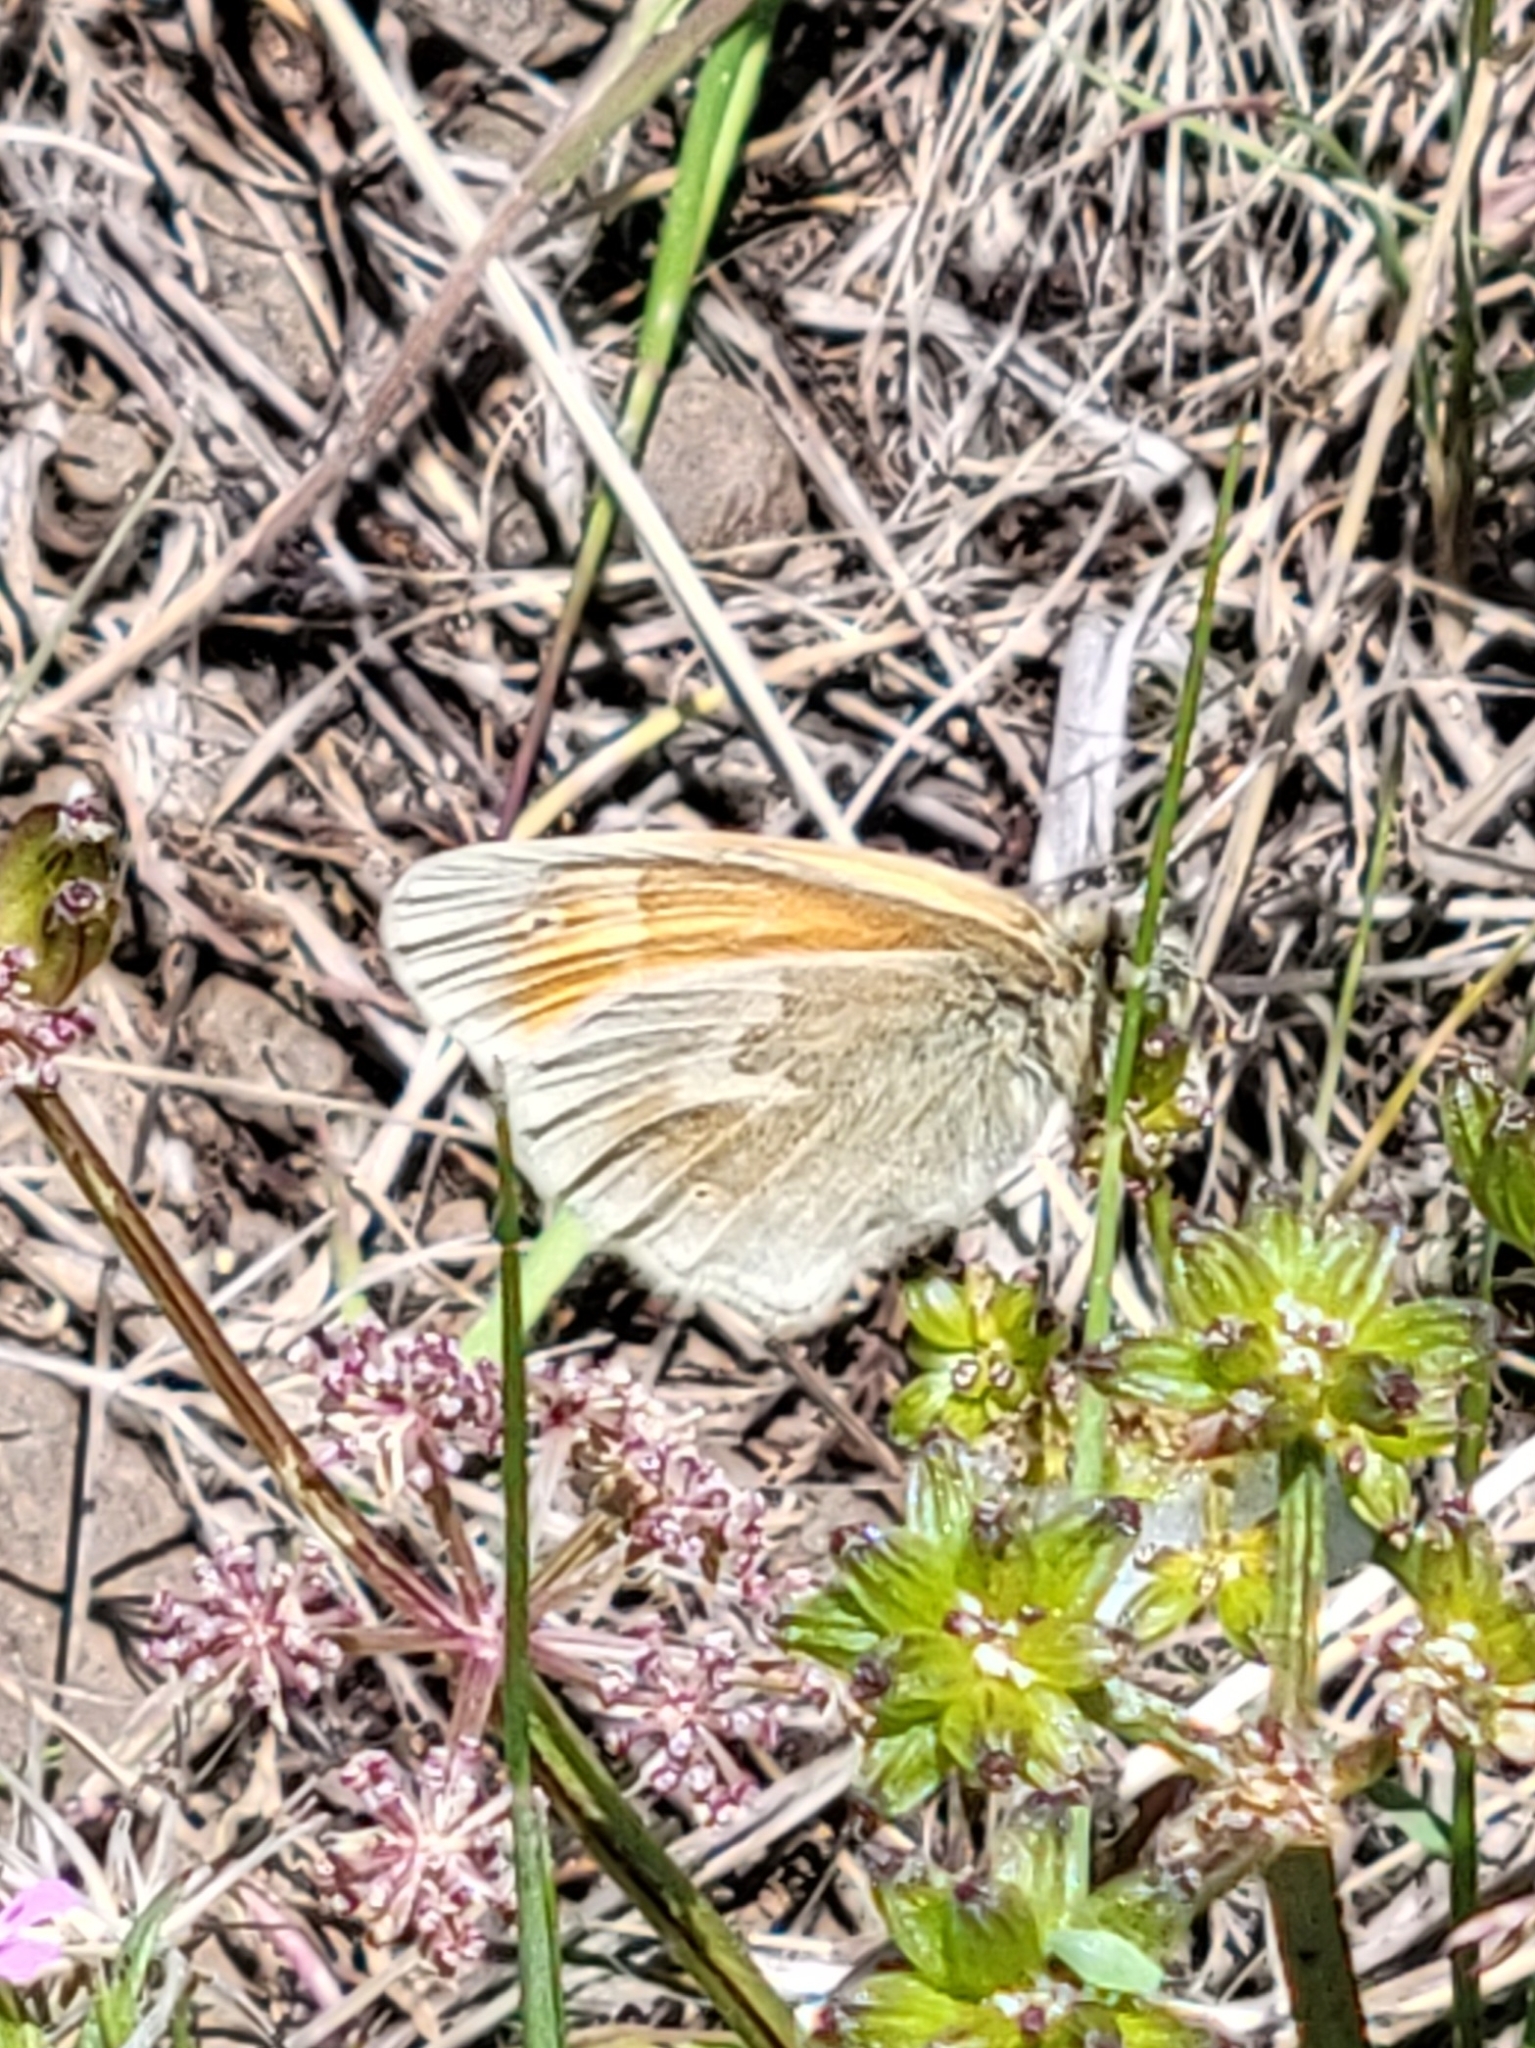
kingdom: Animalia
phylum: Arthropoda
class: Insecta
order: Lepidoptera
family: Nymphalidae
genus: Coenonympha
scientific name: Coenonympha california
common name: Common ringlet
